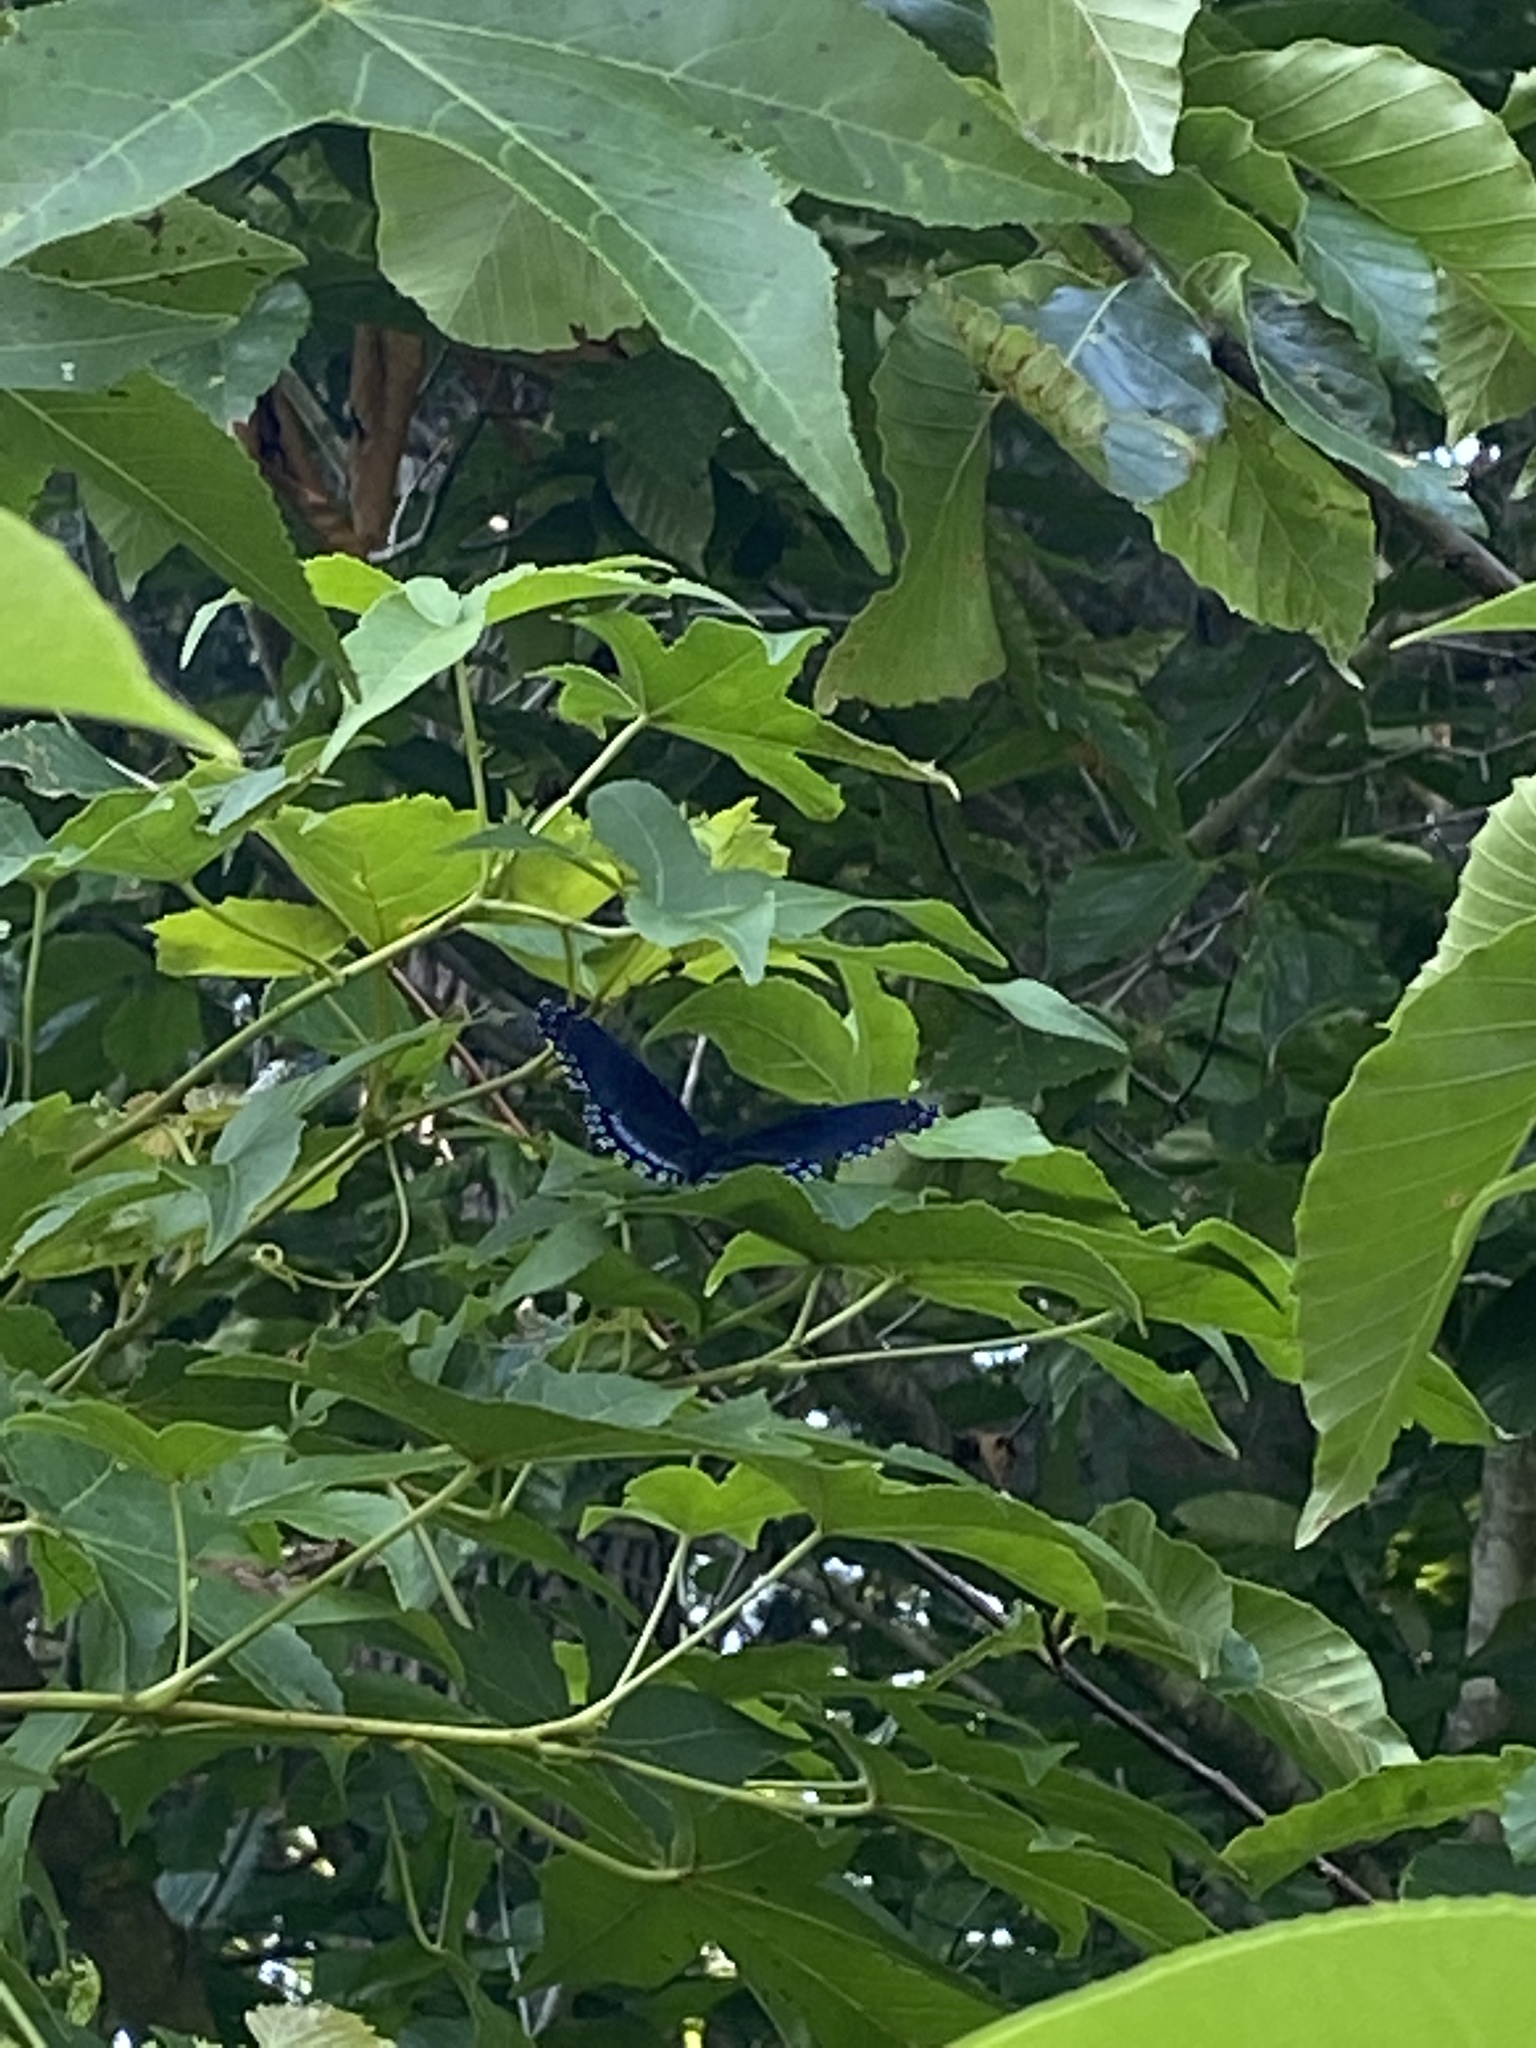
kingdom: Animalia
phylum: Arthropoda
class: Insecta
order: Lepidoptera
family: Nymphalidae
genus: Limenitis
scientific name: Limenitis astyanax
